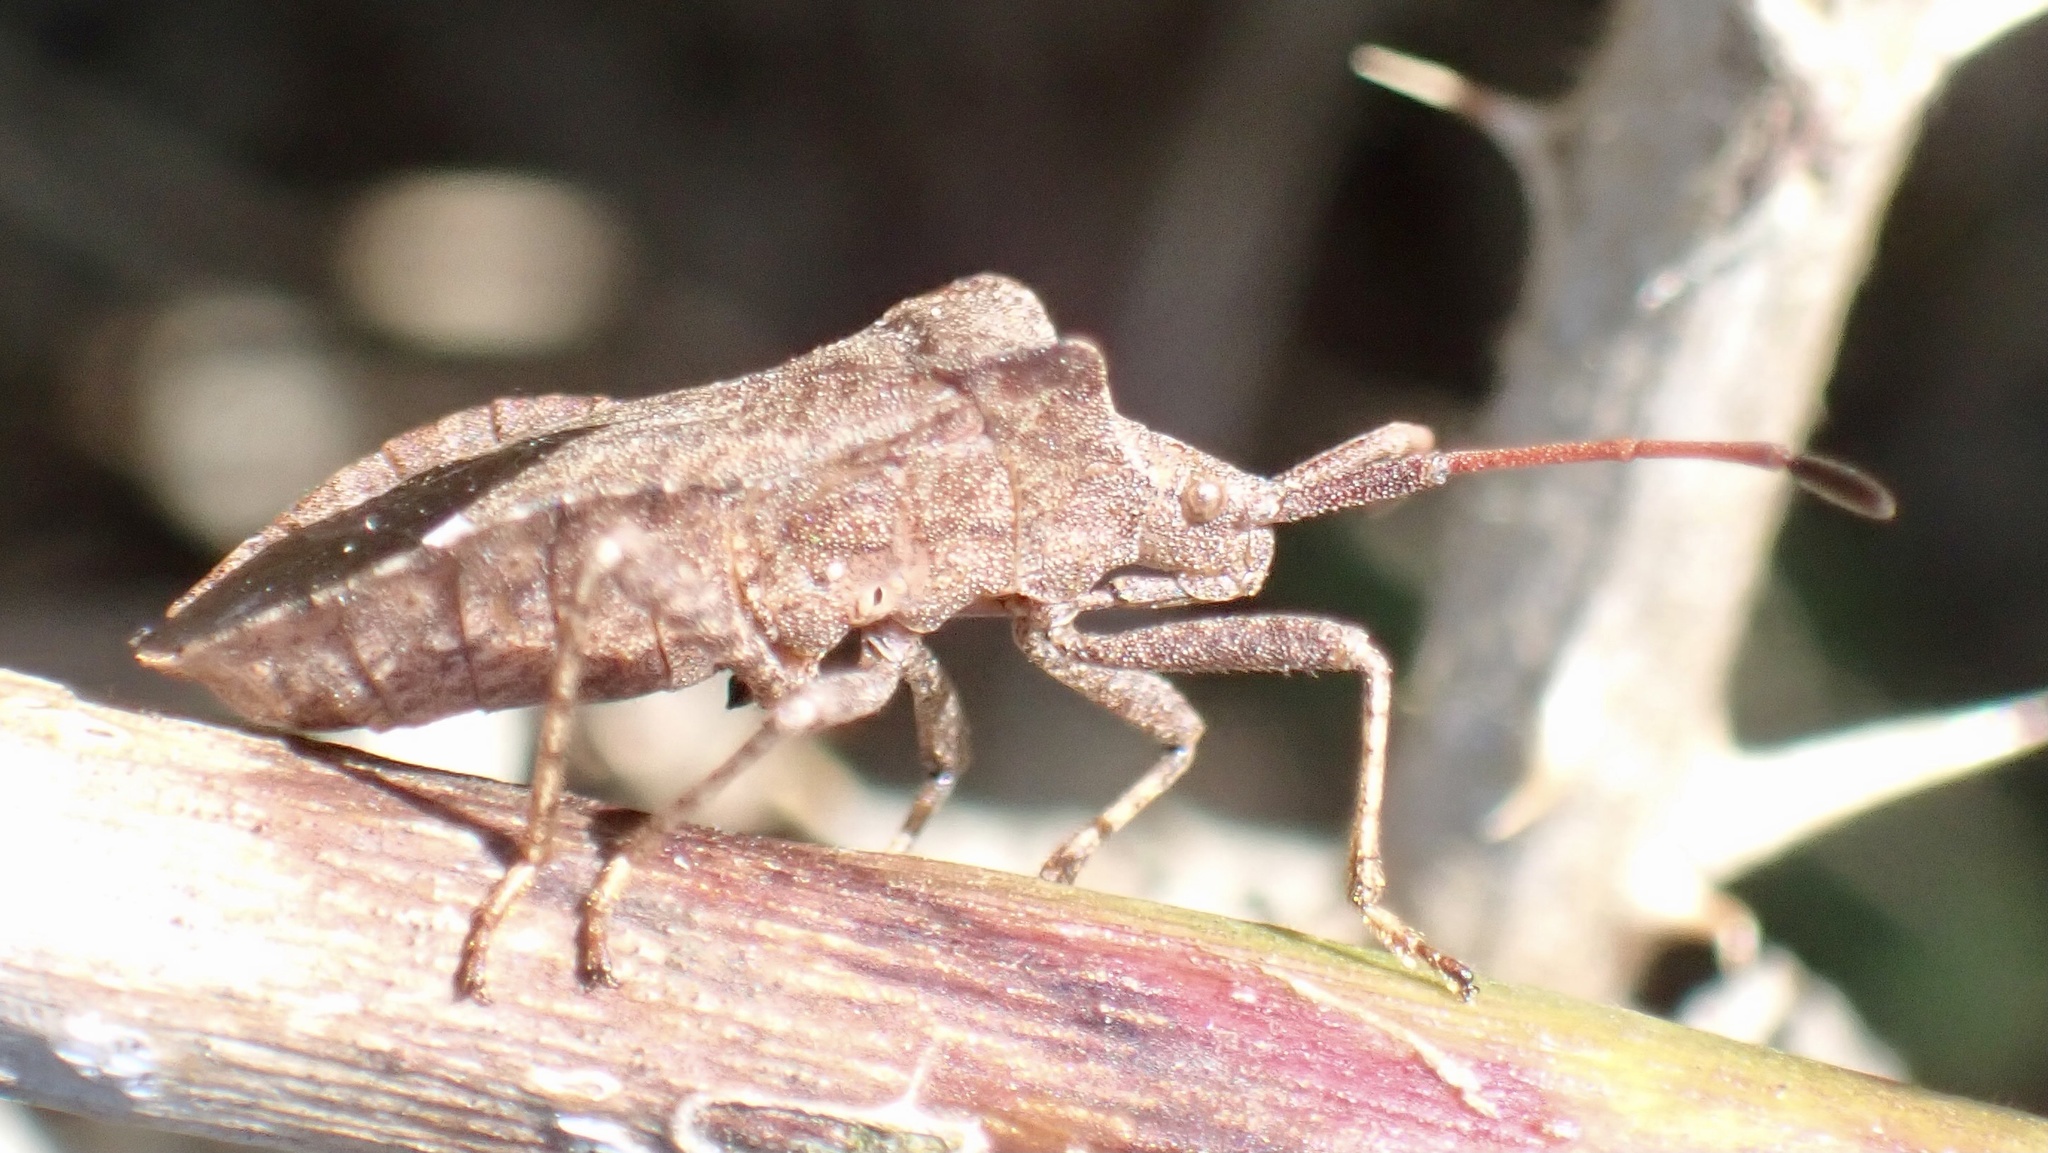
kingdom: Animalia
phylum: Arthropoda
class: Insecta
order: Hemiptera
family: Coreidae
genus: Coreus
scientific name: Coreus marginatus
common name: Dock bug
